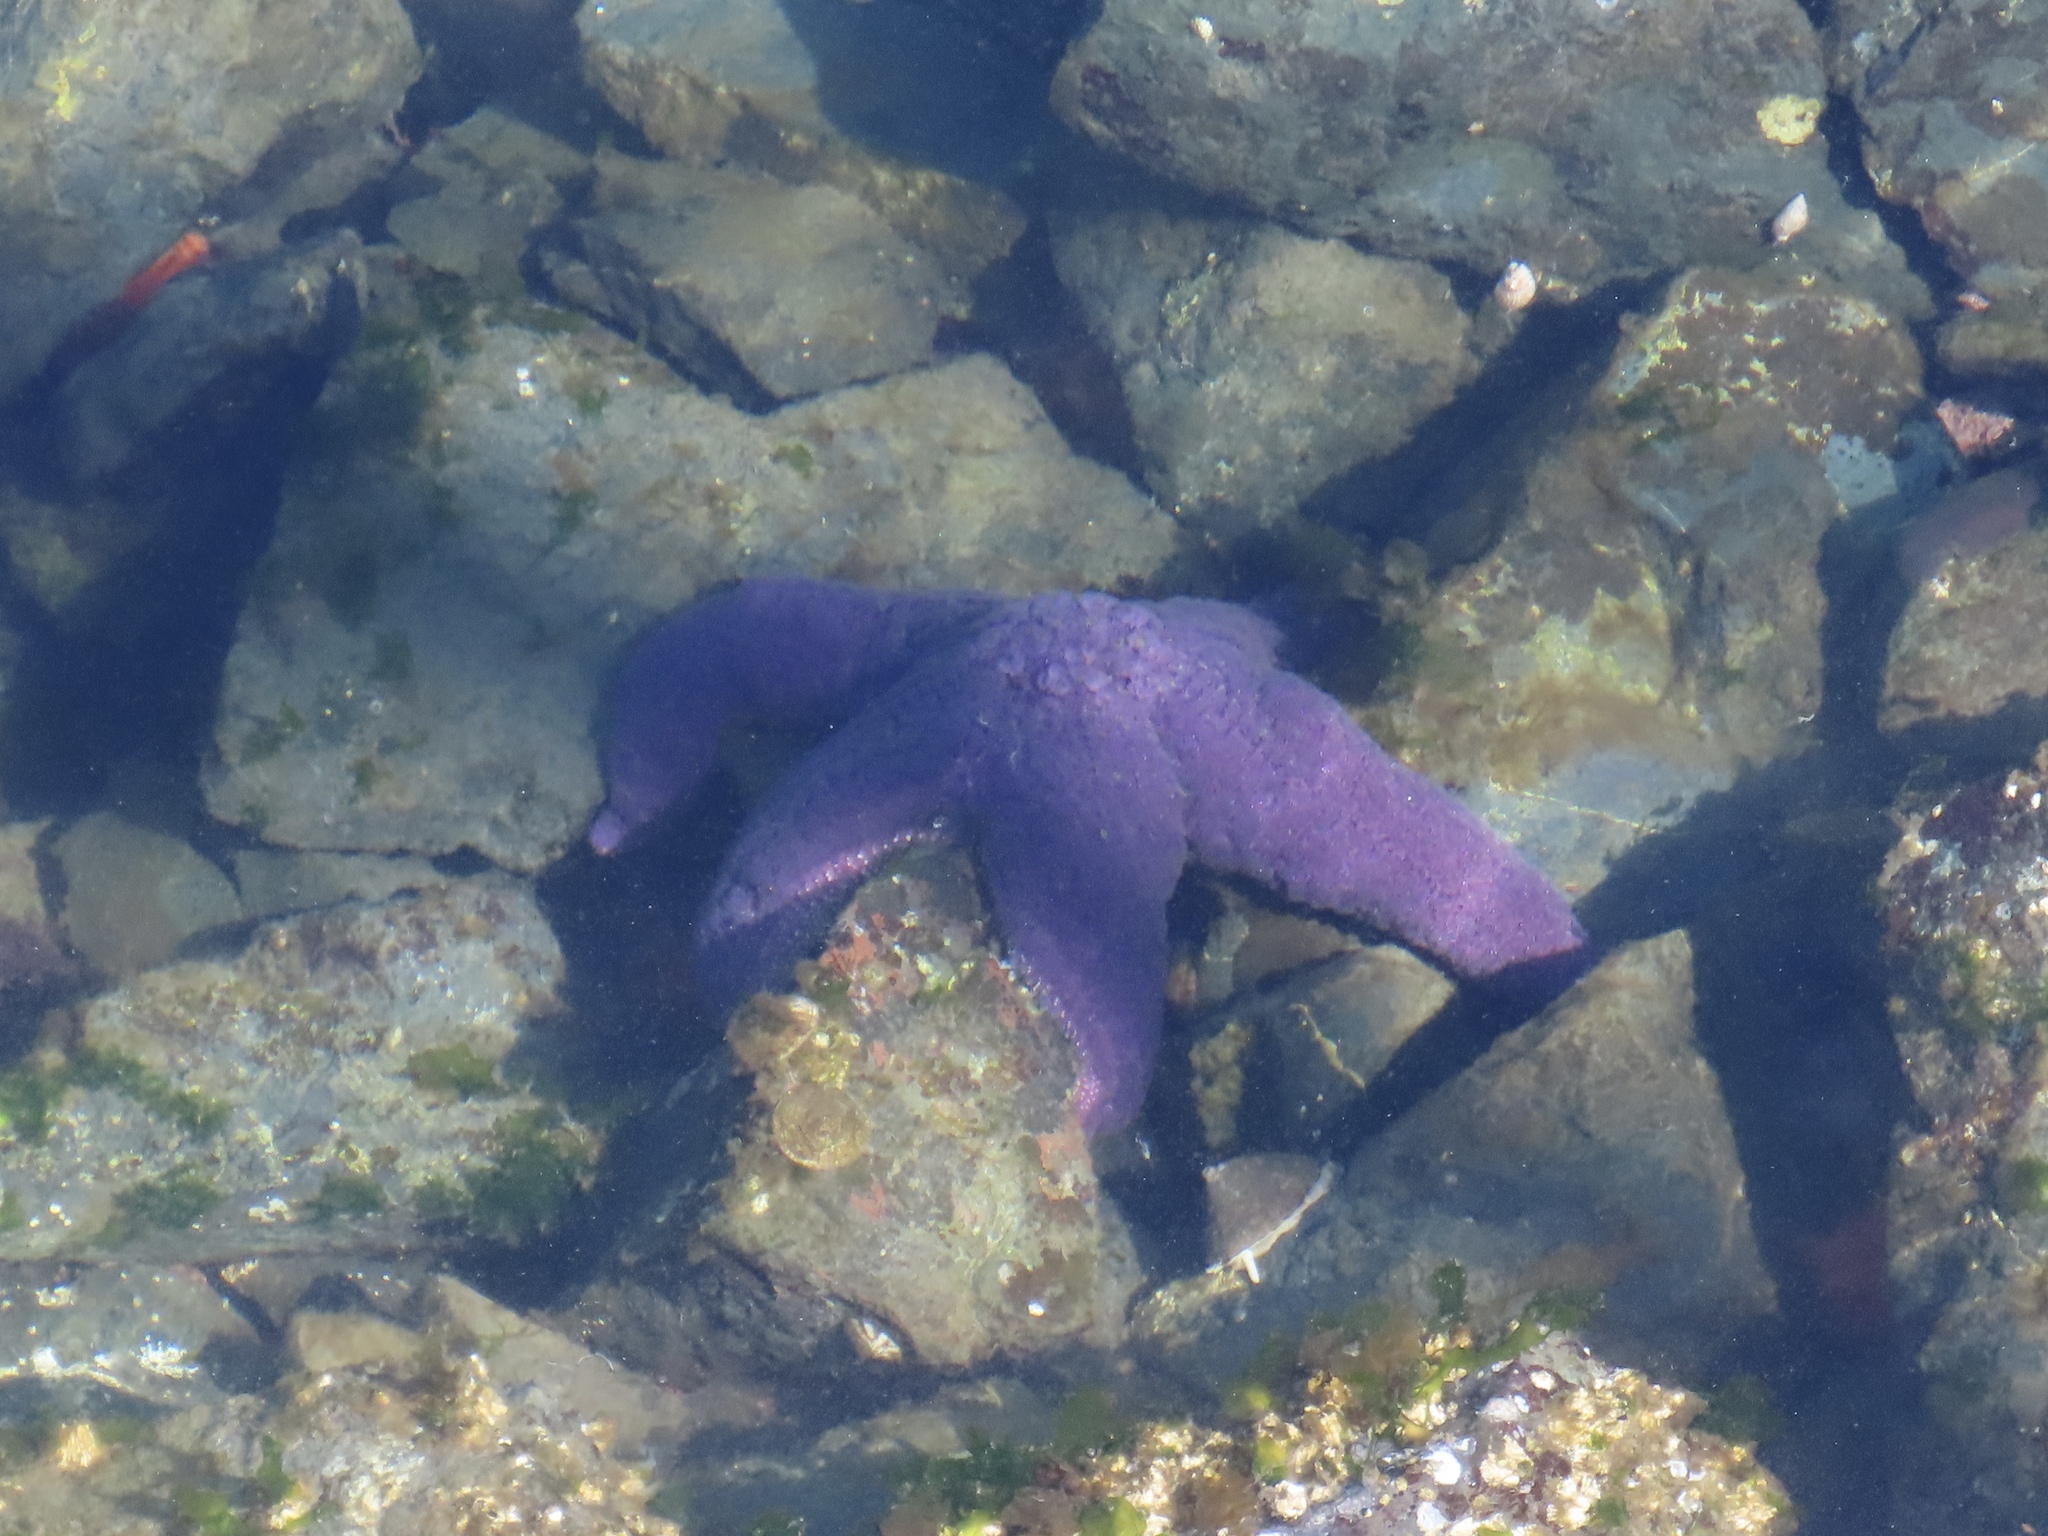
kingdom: Animalia
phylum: Echinodermata
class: Asteroidea
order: Forcipulatida
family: Asteriidae
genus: Pisaster
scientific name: Pisaster ochraceus
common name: Ochre stars
